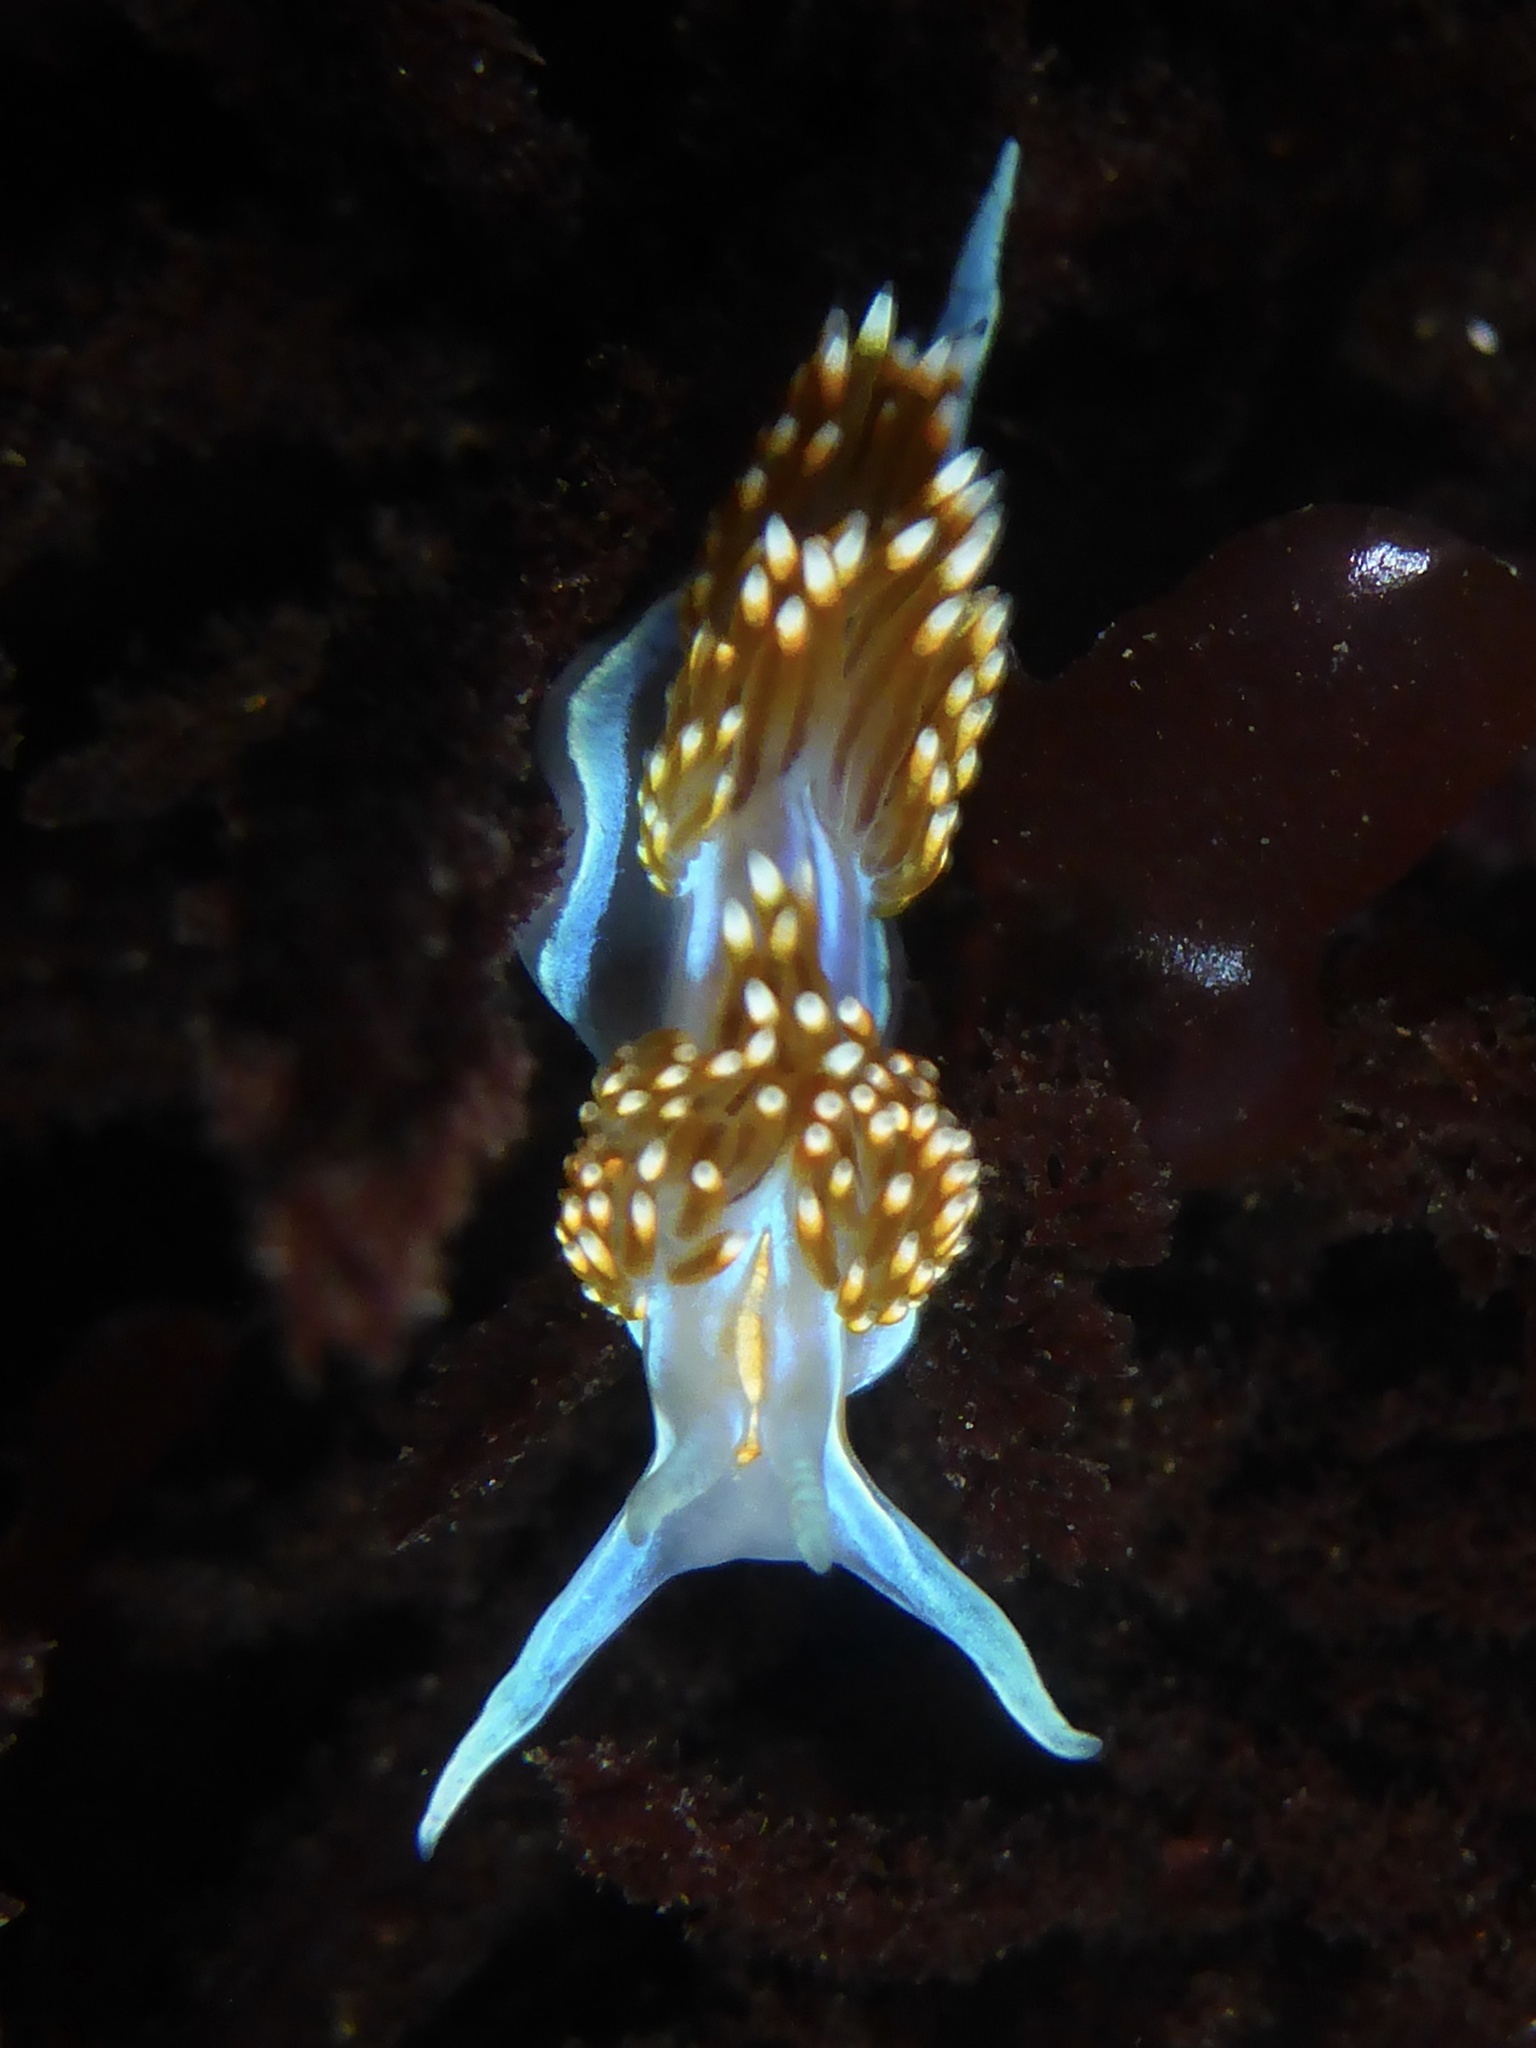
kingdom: Animalia
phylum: Mollusca
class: Gastropoda
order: Nudibranchia
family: Myrrhinidae
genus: Hermissenda
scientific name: Hermissenda opalescens
